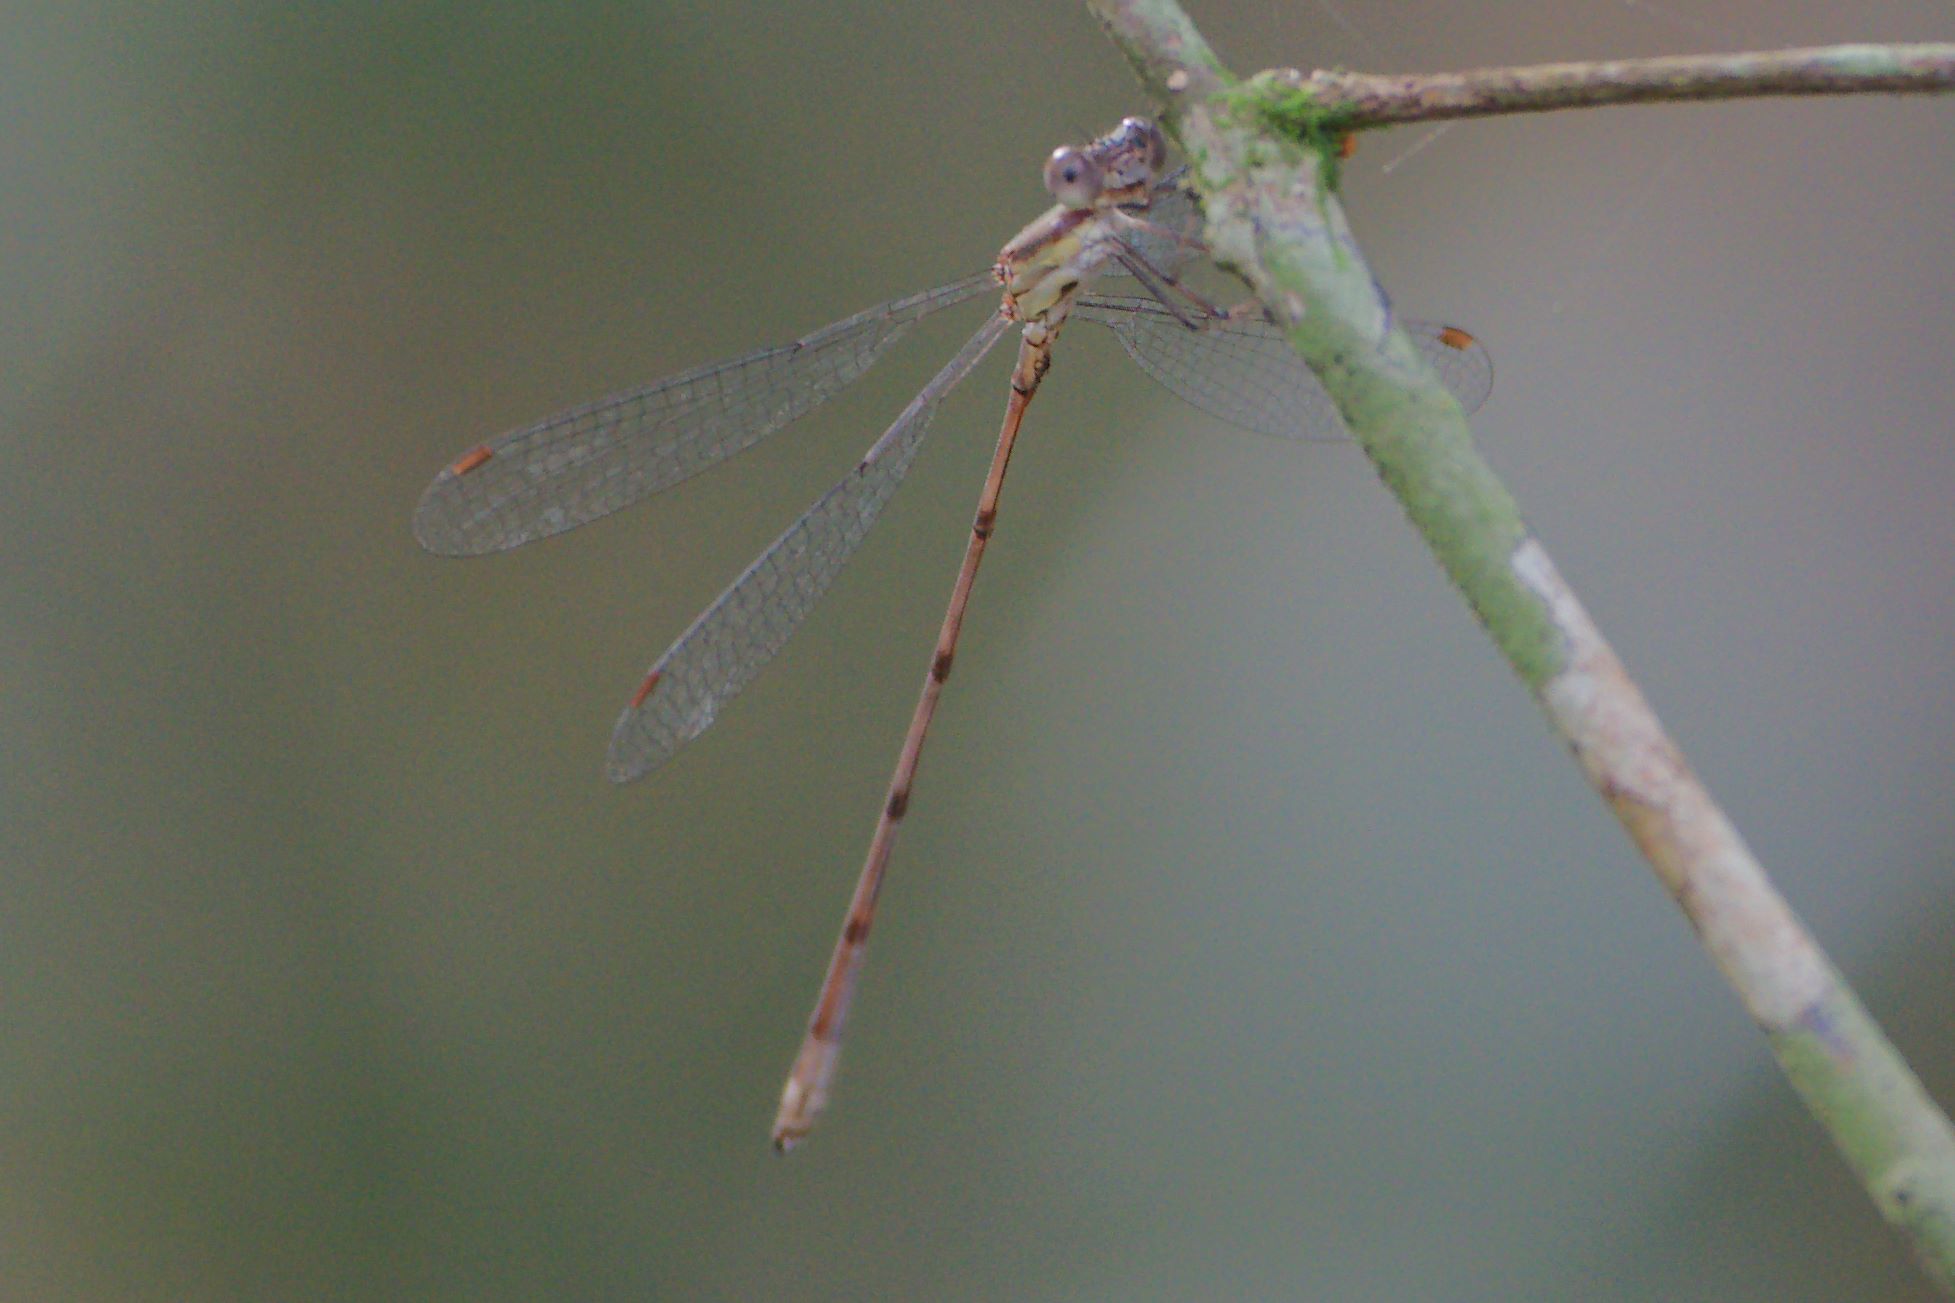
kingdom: Animalia
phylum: Arthropoda
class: Insecta
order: Odonata
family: Lestidae
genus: Lestes
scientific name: Lestes tenuatus
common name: Blue-striped spreadwing
